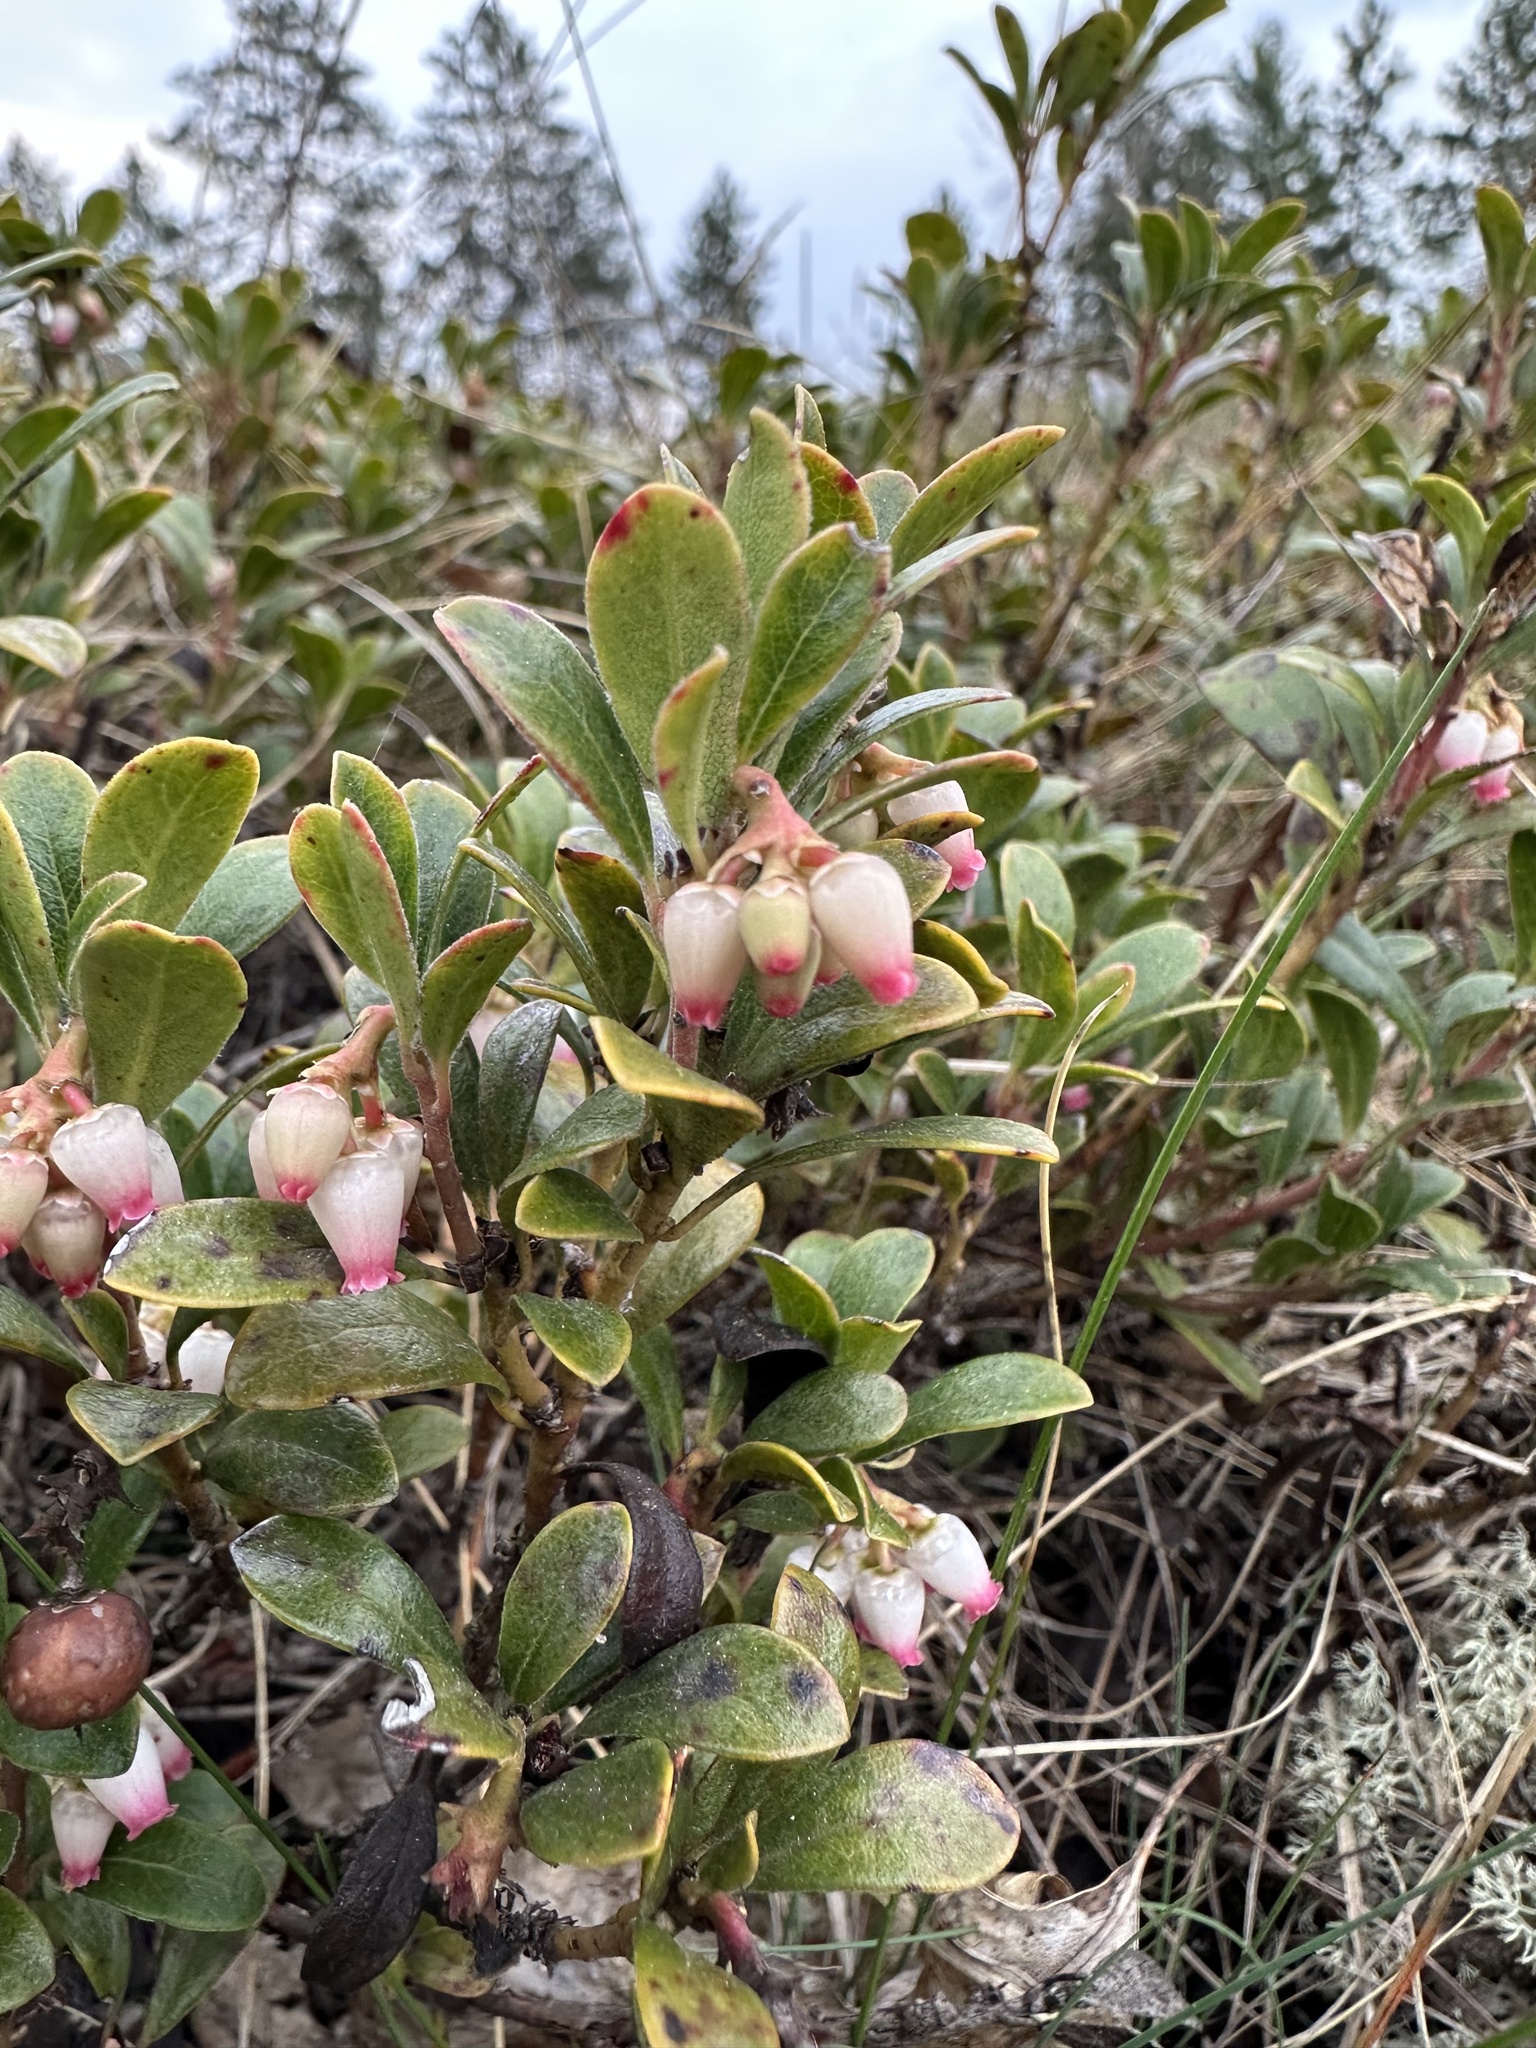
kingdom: Plantae
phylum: Tracheophyta
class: Magnoliopsida
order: Ericales
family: Ericaceae
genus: Arctostaphylos
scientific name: Arctostaphylos uva-ursi
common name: Bearberry
